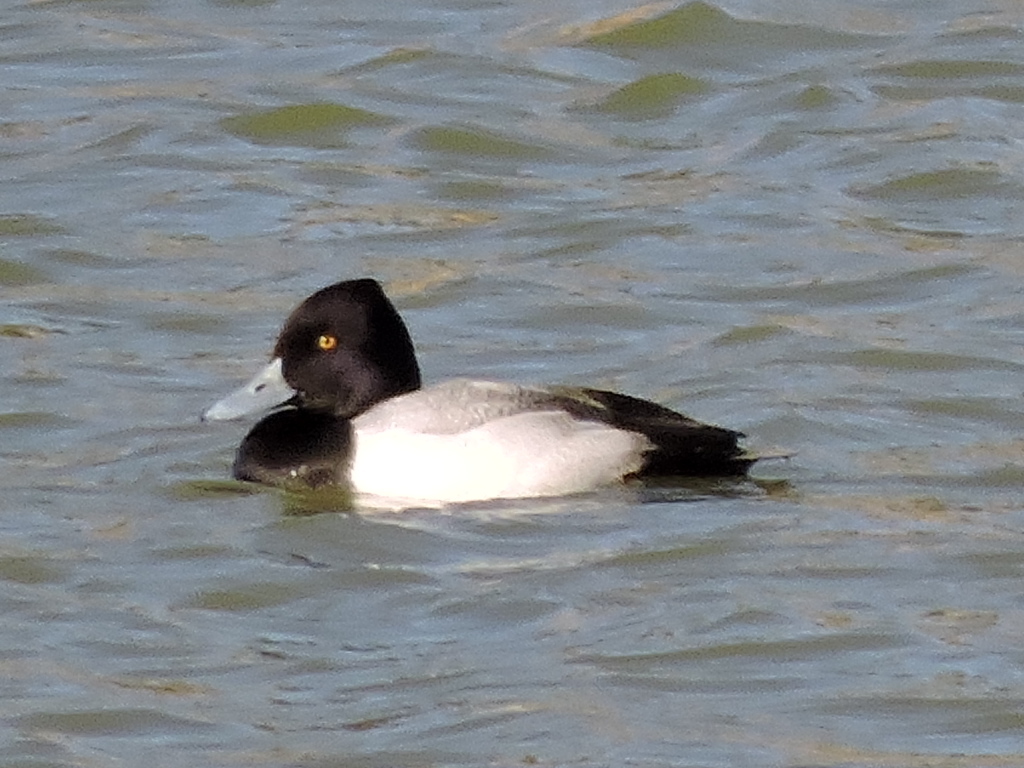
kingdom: Animalia
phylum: Chordata
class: Aves
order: Anseriformes
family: Anatidae
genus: Aythya
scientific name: Aythya affinis
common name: Lesser scaup
